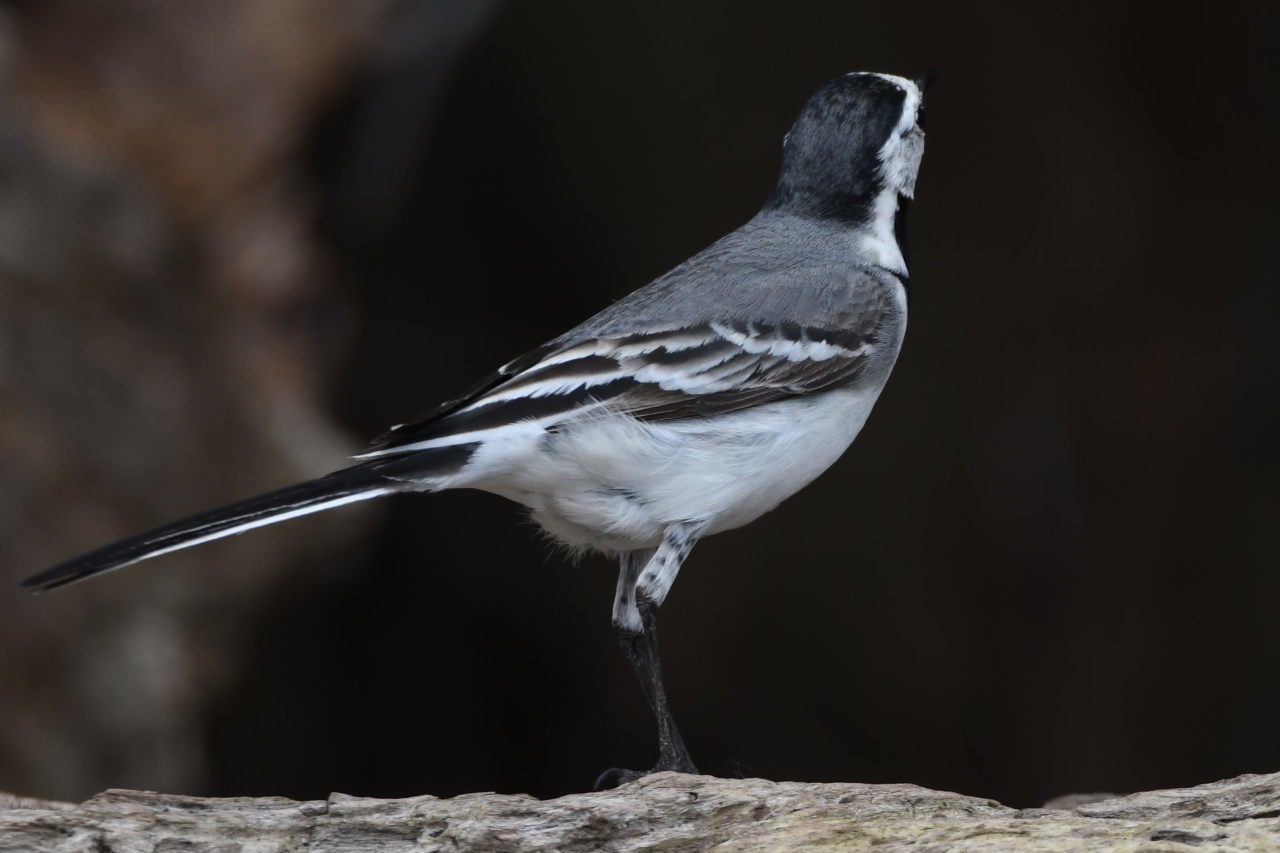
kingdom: Animalia
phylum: Chordata
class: Aves
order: Passeriformes
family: Motacillidae
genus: Motacilla
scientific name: Motacilla alba
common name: White wagtail
